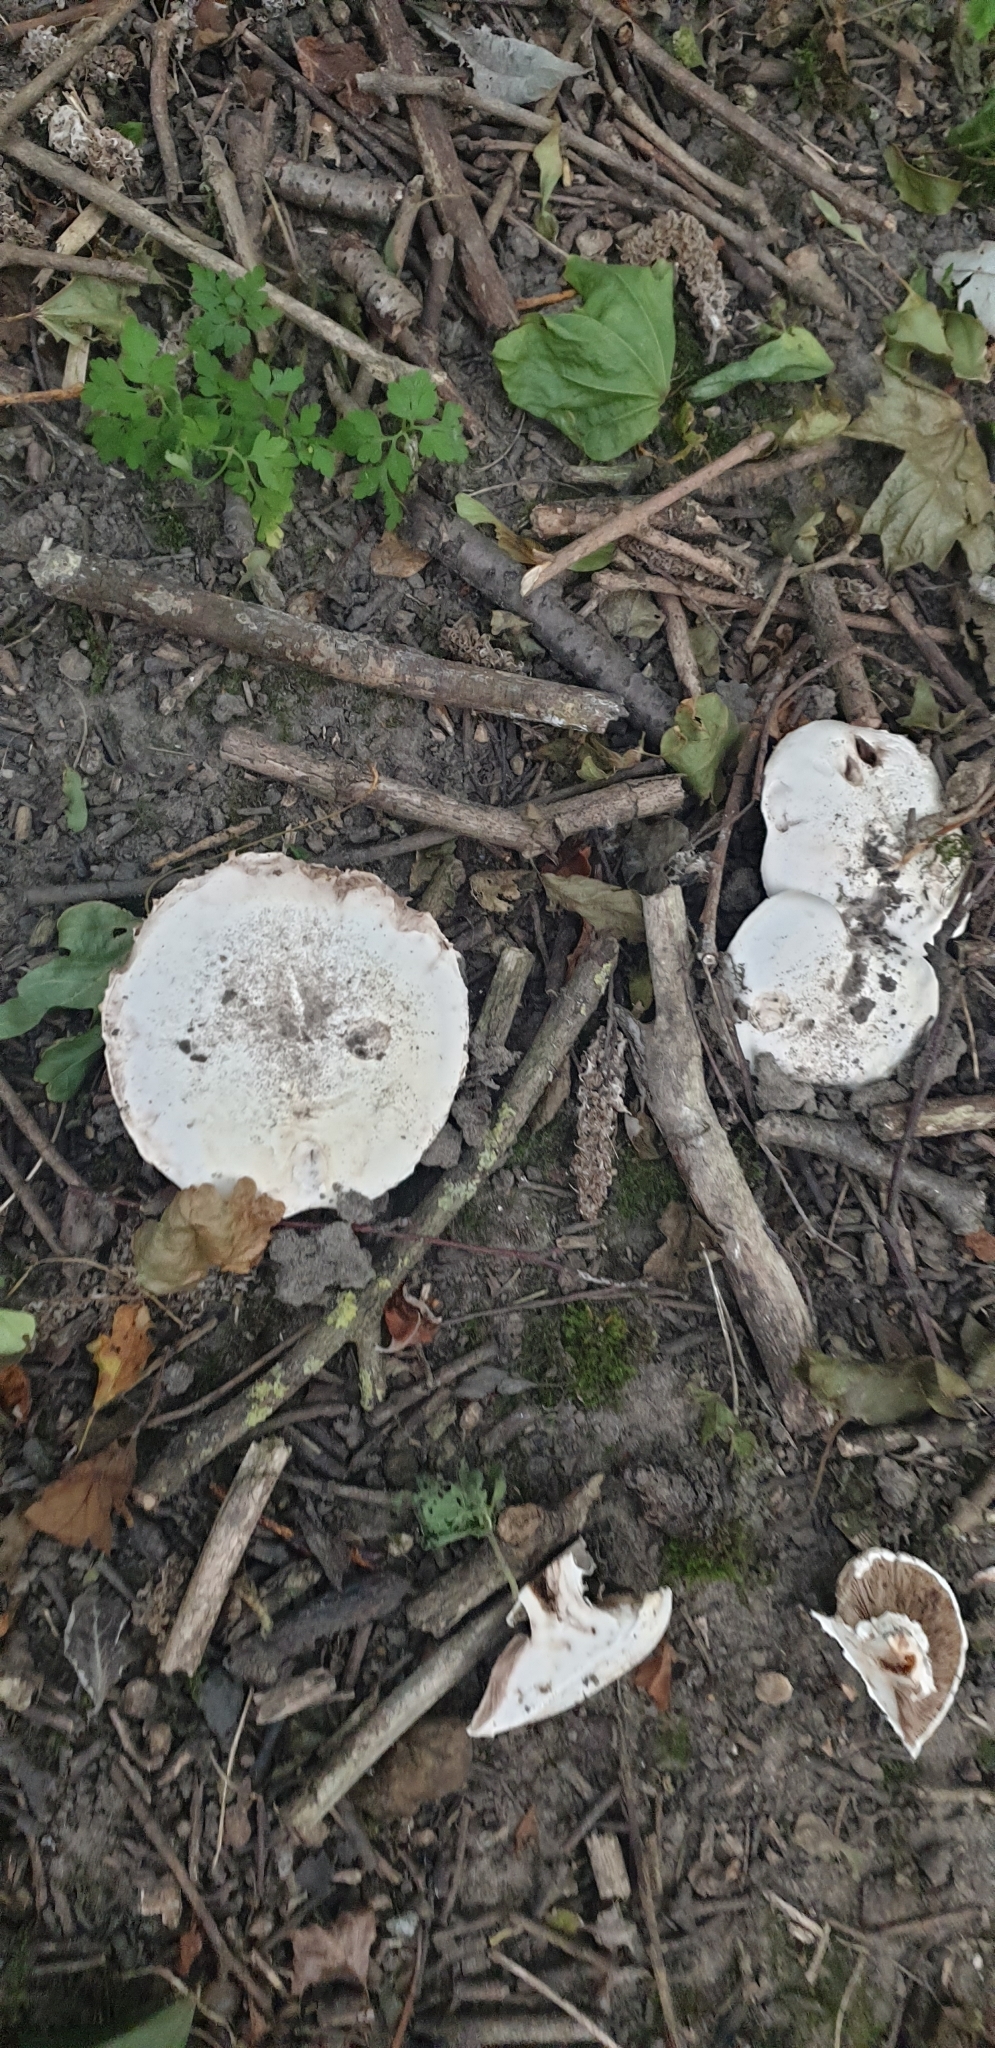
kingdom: Fungi
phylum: Basidiomycota
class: Agaricomycetes
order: Agaricales
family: Agaricaceae
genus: Agaricus
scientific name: Agaricus bitorquis
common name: Pavement mushroom
